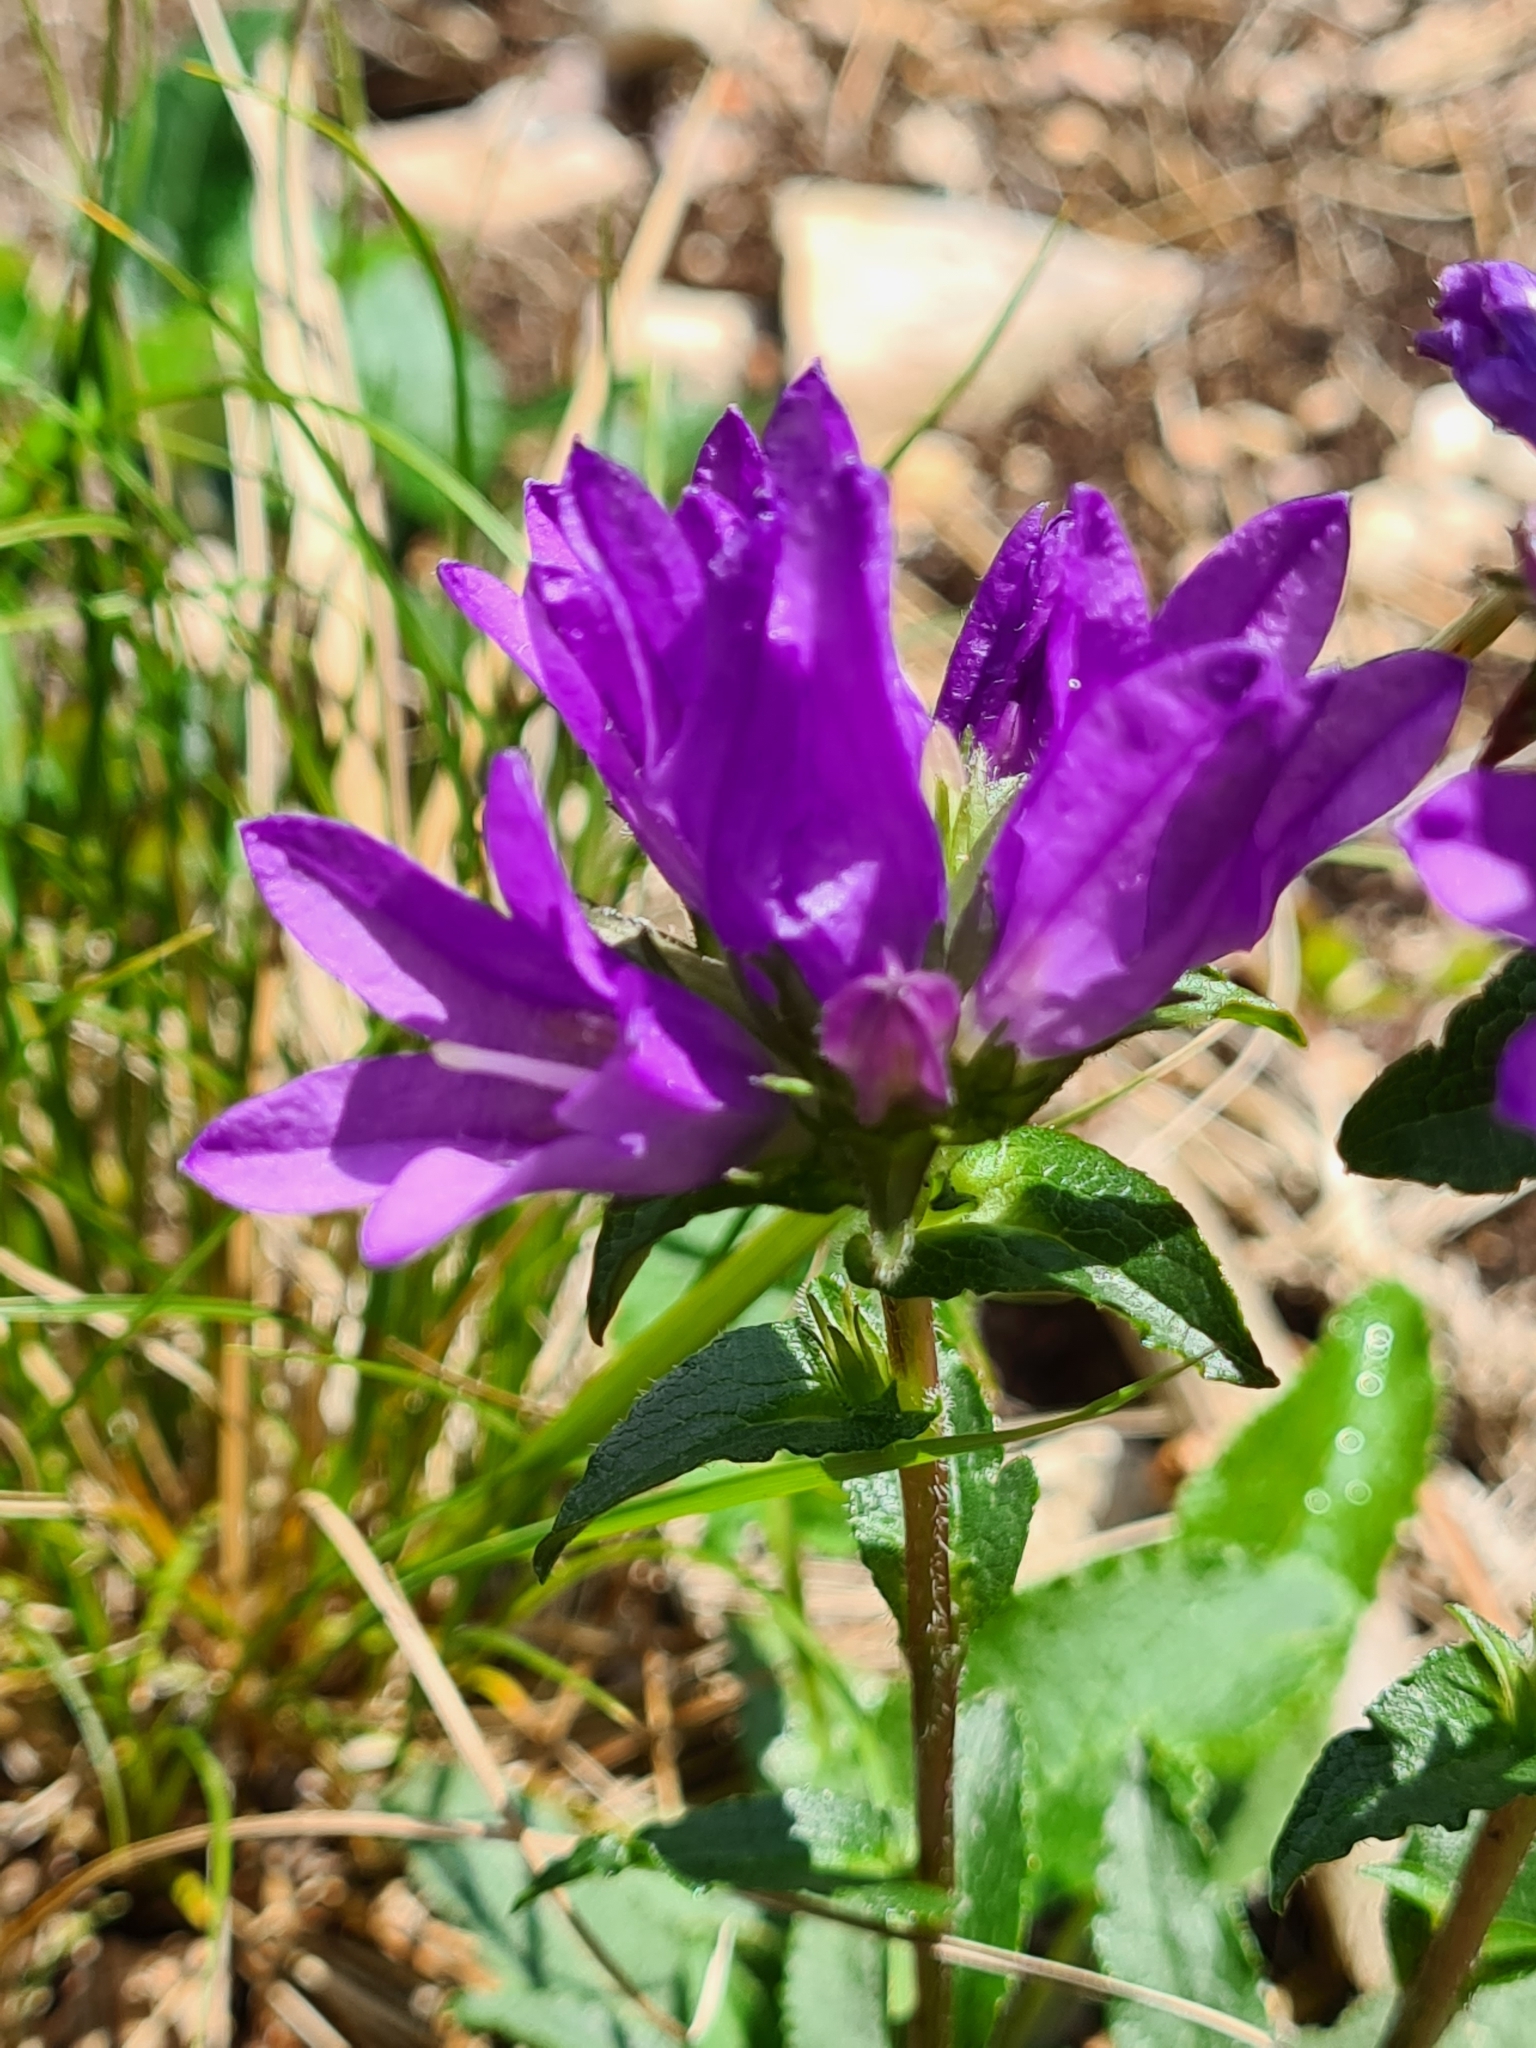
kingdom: Plantae
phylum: Tracheophyta
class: Magnoliopsida
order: Asterales
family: Campanulaceae
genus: Campanula
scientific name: Campanula glomerata
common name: Clustered bellflower
